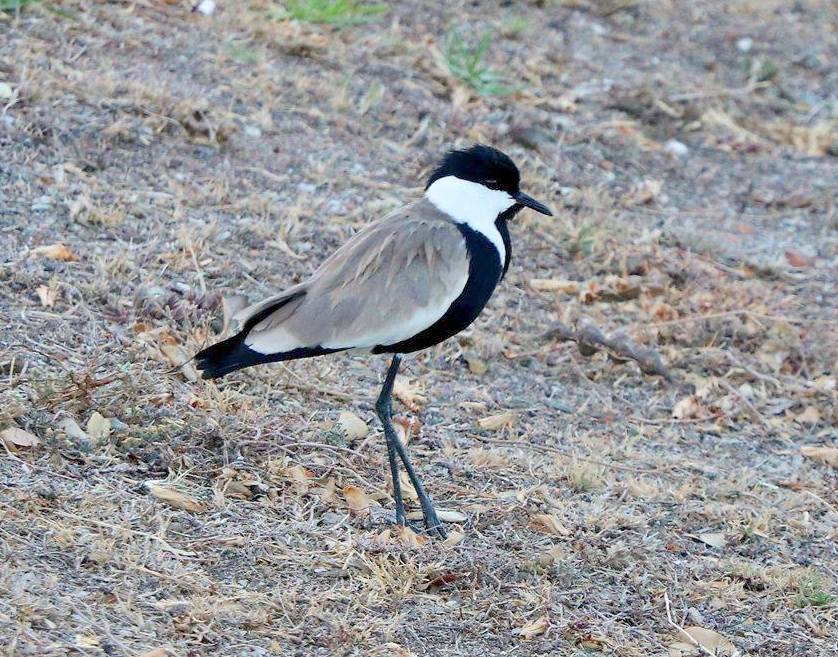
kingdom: Animalia
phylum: Chordata
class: Aves
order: Charadriiformes
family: Charadriidae
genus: Vanellus
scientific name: Vanellus spinosus
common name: Spur-winged lapwing
